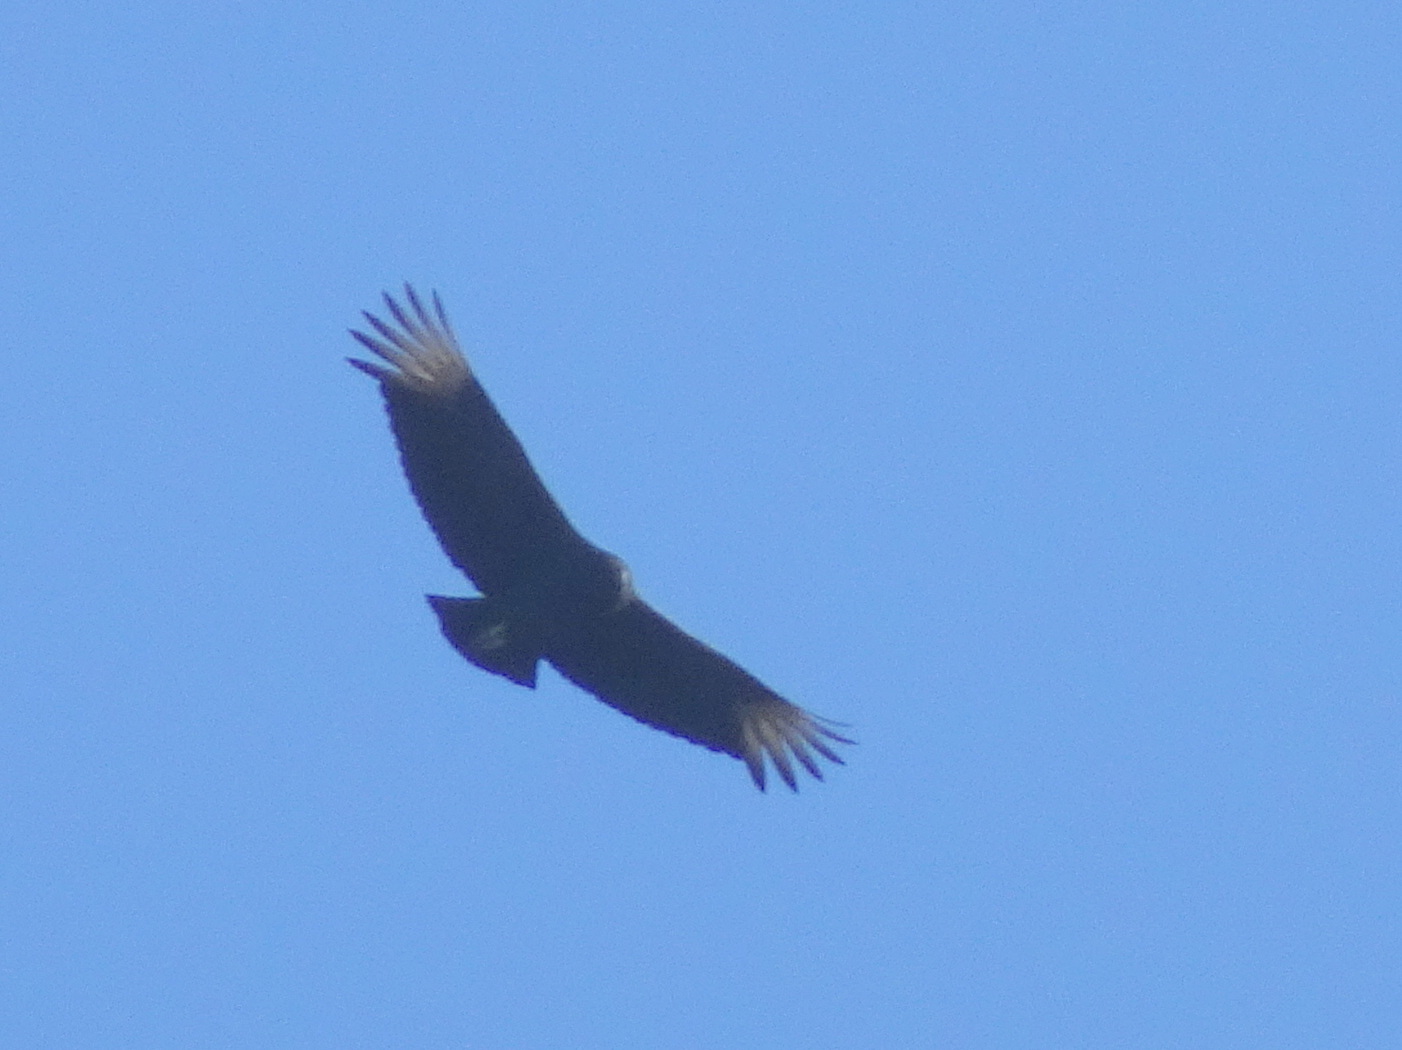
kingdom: Animalia
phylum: Chordata
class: Aves
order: Accipitriformes
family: Cathartidae
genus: Coragyps
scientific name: Coragyps atratus
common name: Black vulture
